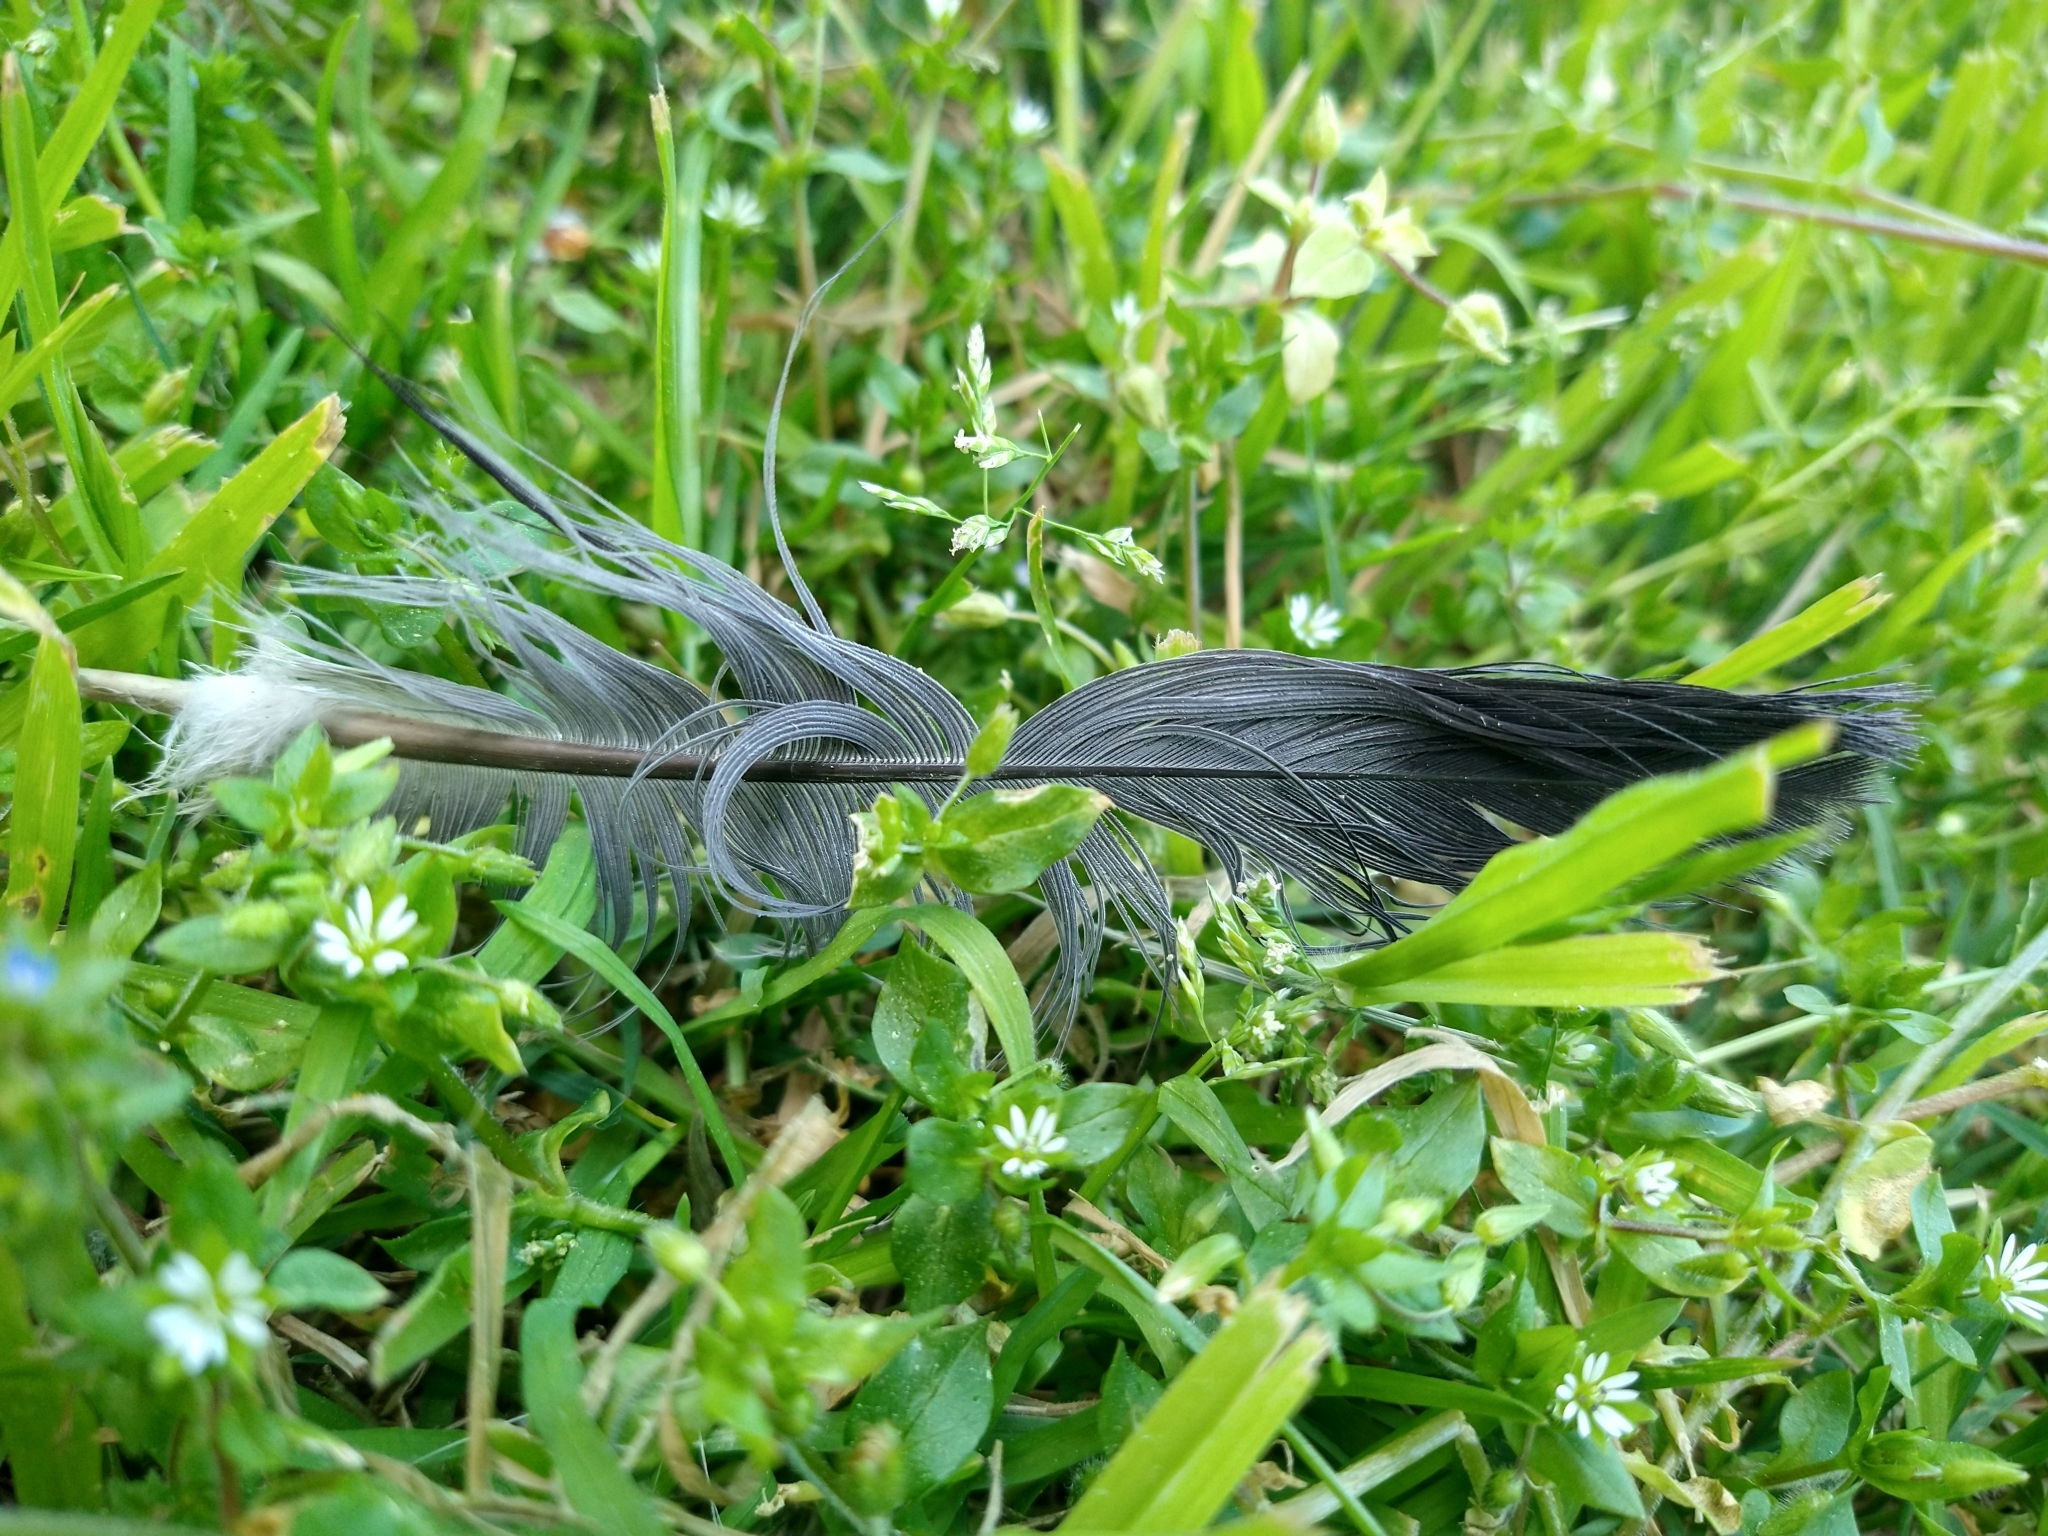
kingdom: Animalia
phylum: Chordata
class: Aves
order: Columbiformes
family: Columbidae
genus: Columba
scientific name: Columba livia
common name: Rock pigeon
